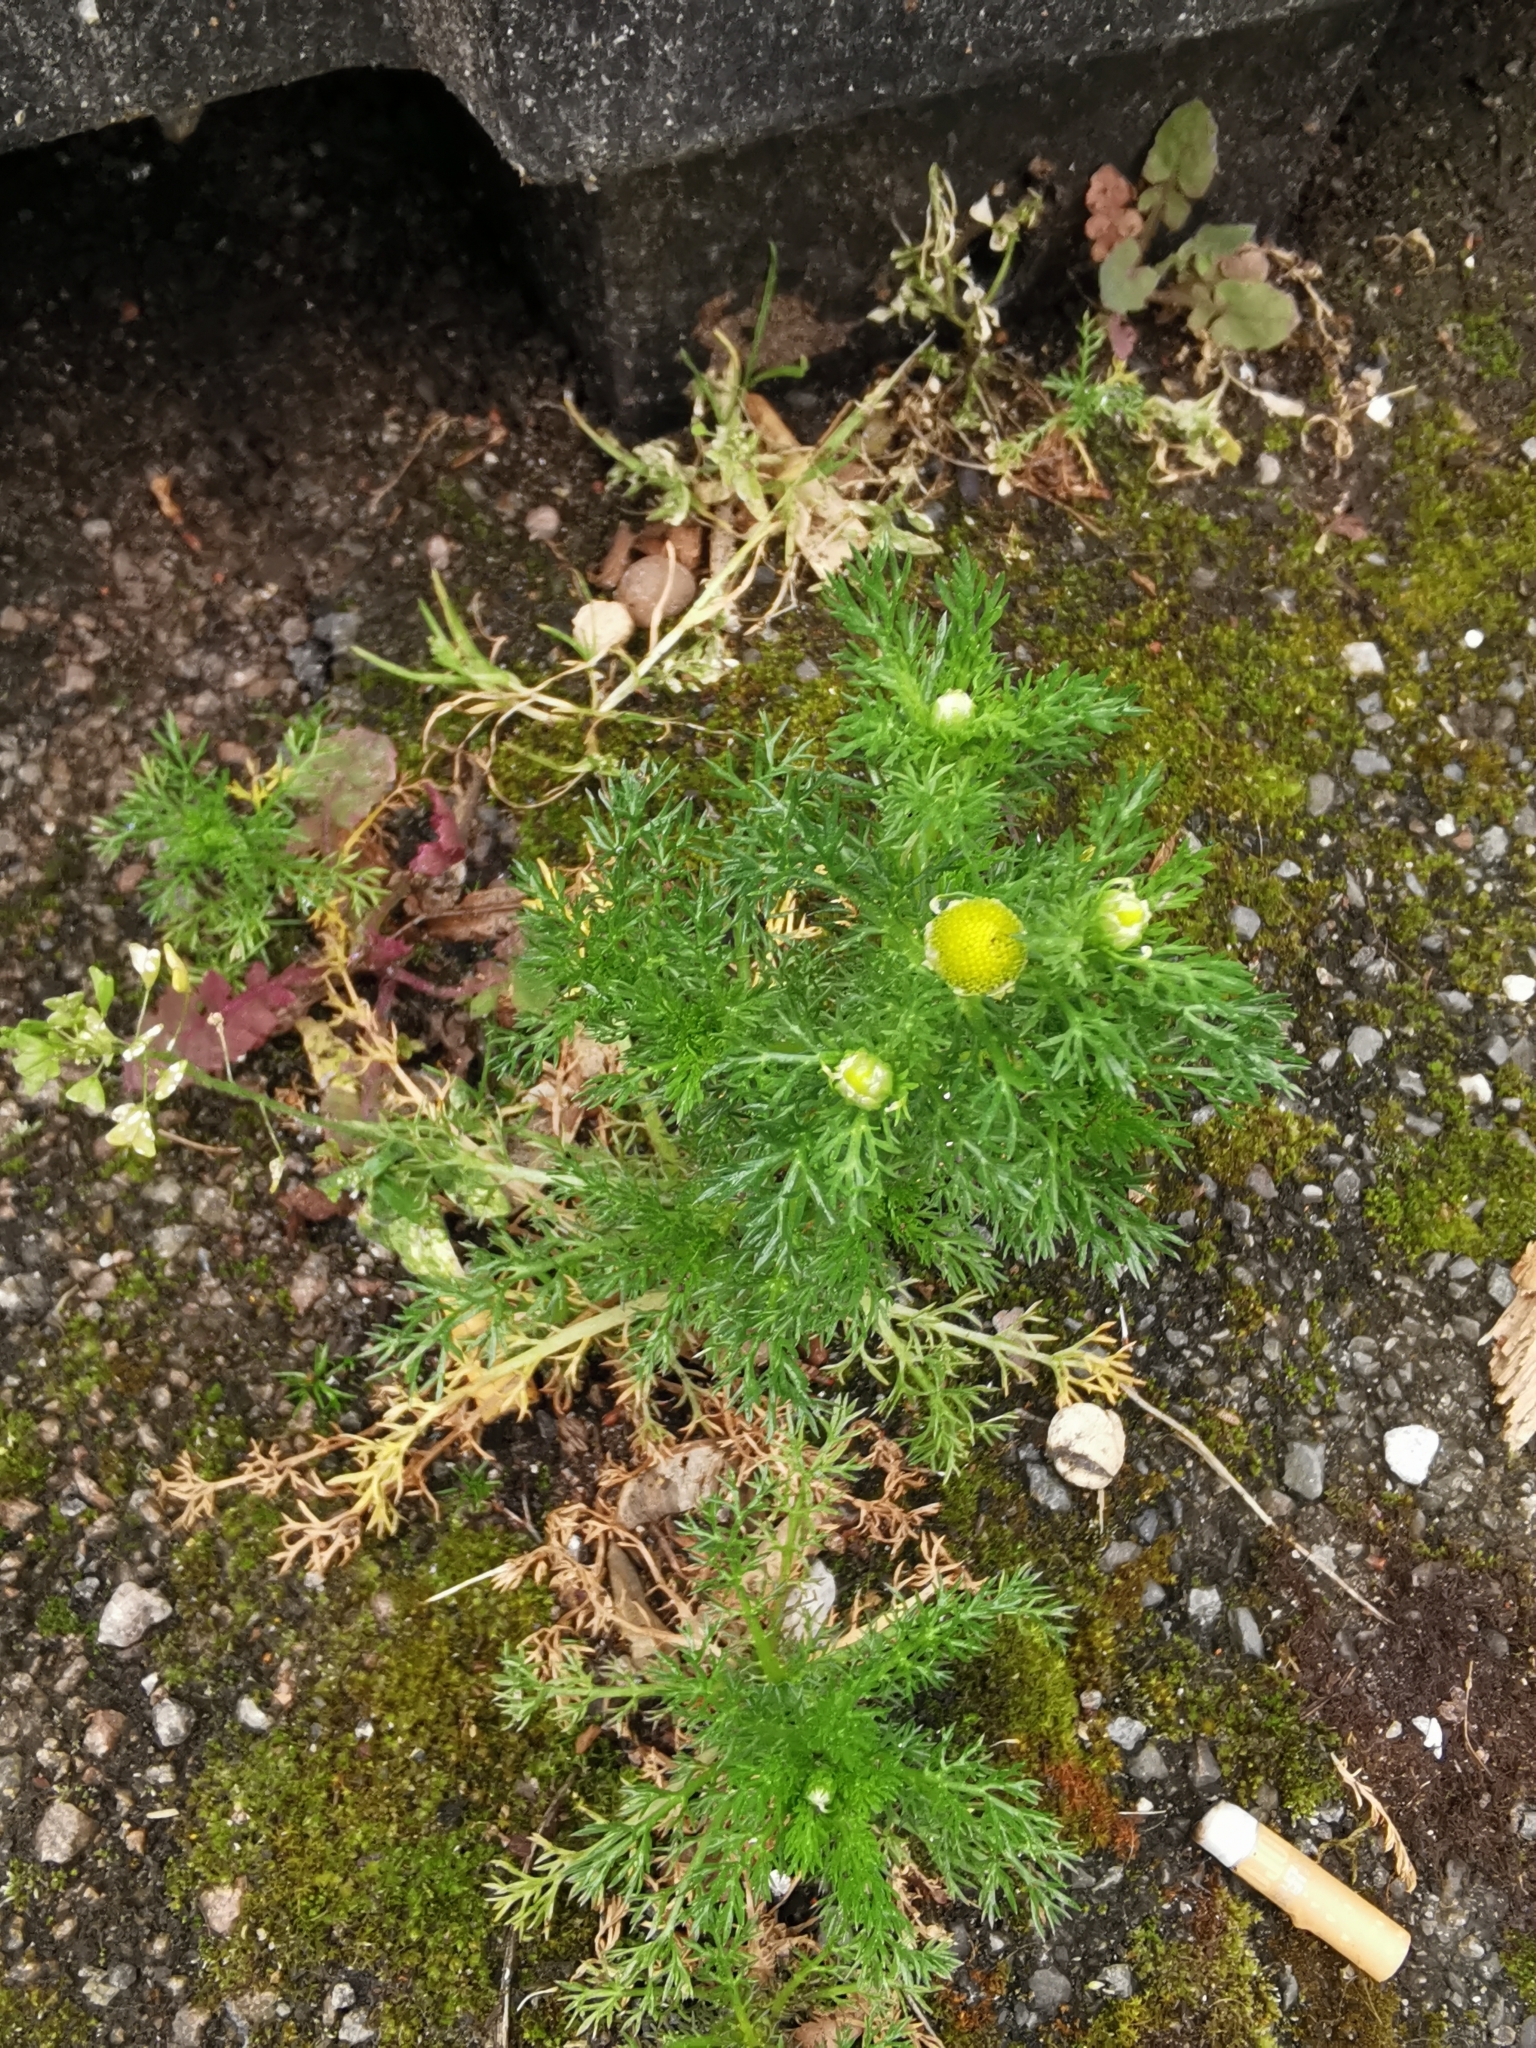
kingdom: Plantae
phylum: Tracheophyta
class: Magnoliopsida
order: Asterales
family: Asteraceae
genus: Matricaria
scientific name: Matricaria discoidea
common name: Disc mayweed
